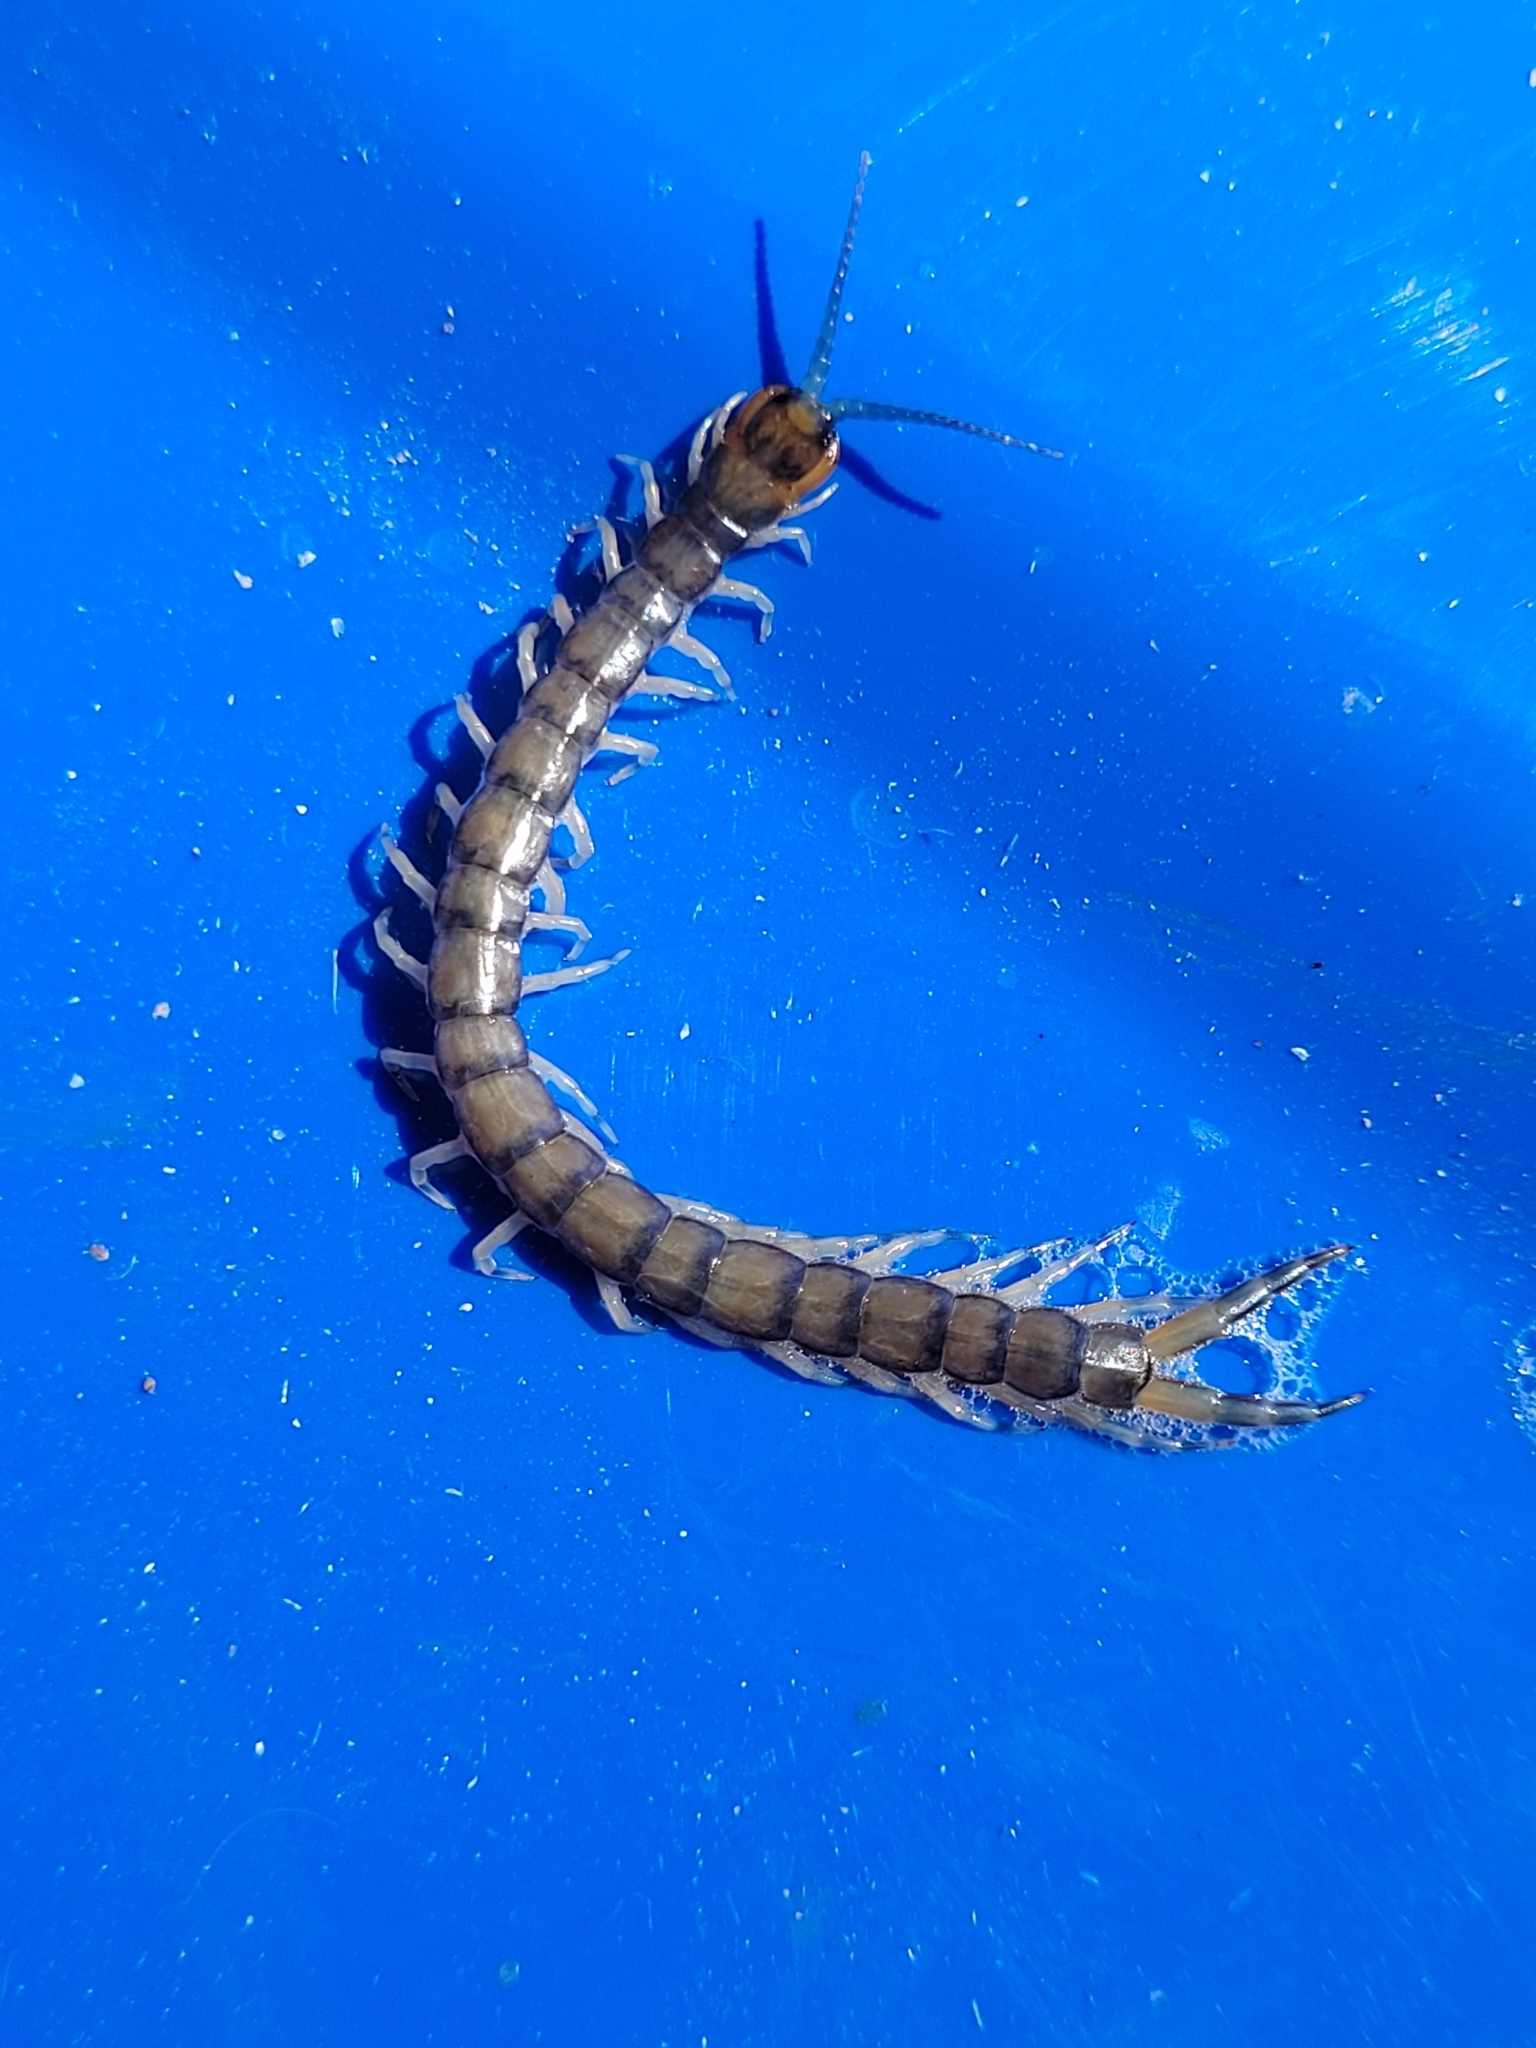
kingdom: Animalia
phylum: Arthropoda
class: Chilopoda
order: Scolopendromorpha
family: Scolopendridae
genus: Hemiscolopendra
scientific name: Hemiscolopendra marginata
